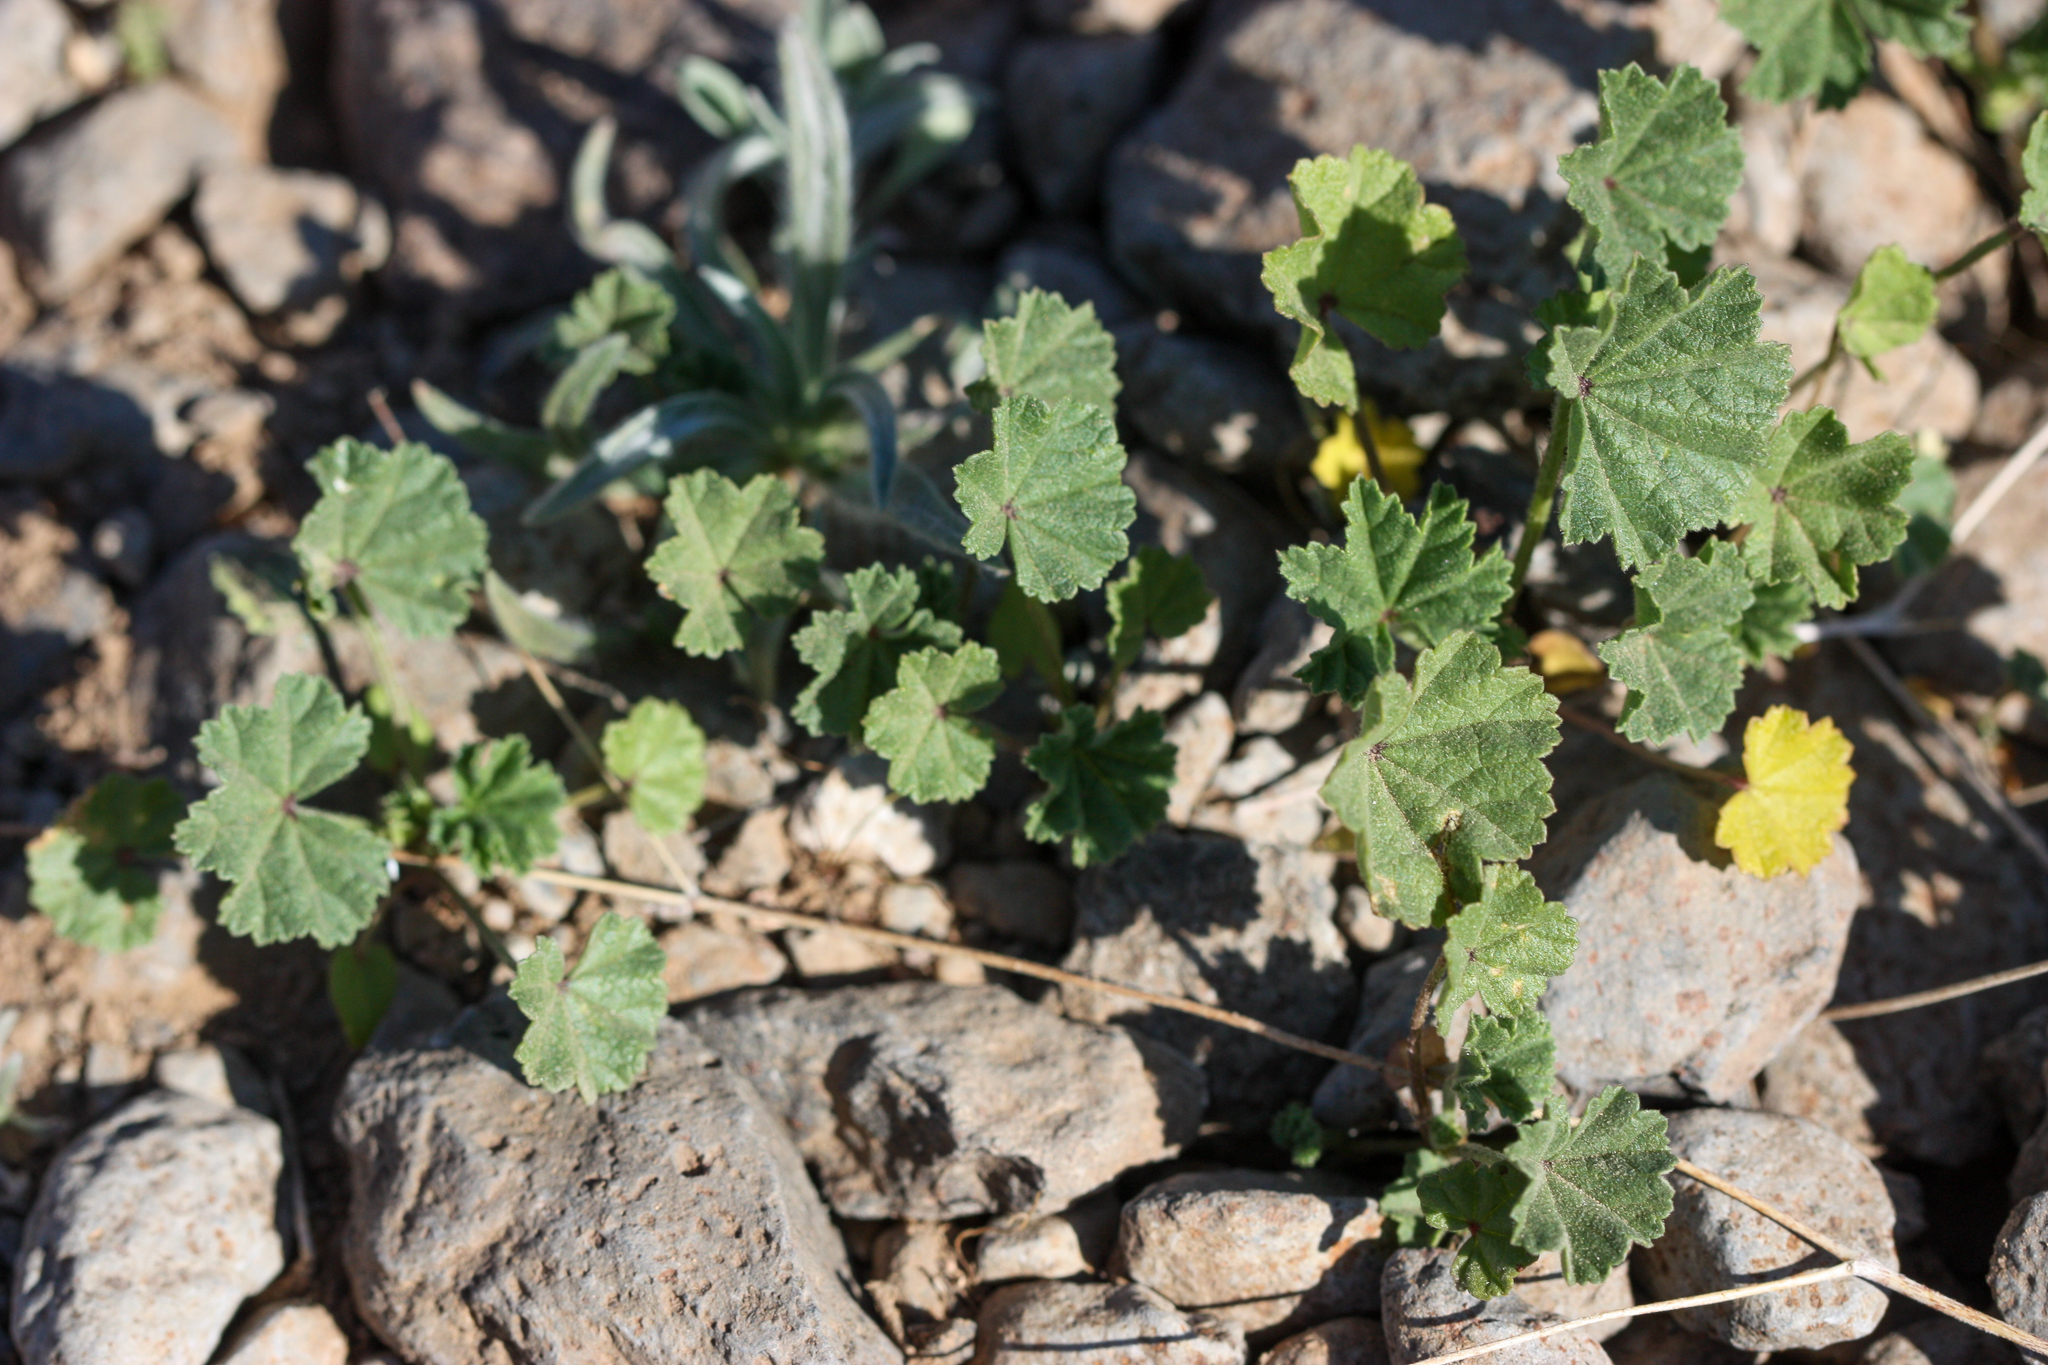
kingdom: Plantae
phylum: Tracheophyta
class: Magnoliopsida
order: Malvales
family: Malvaceae
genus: Malva
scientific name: Malva parviflora
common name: Least mallow
